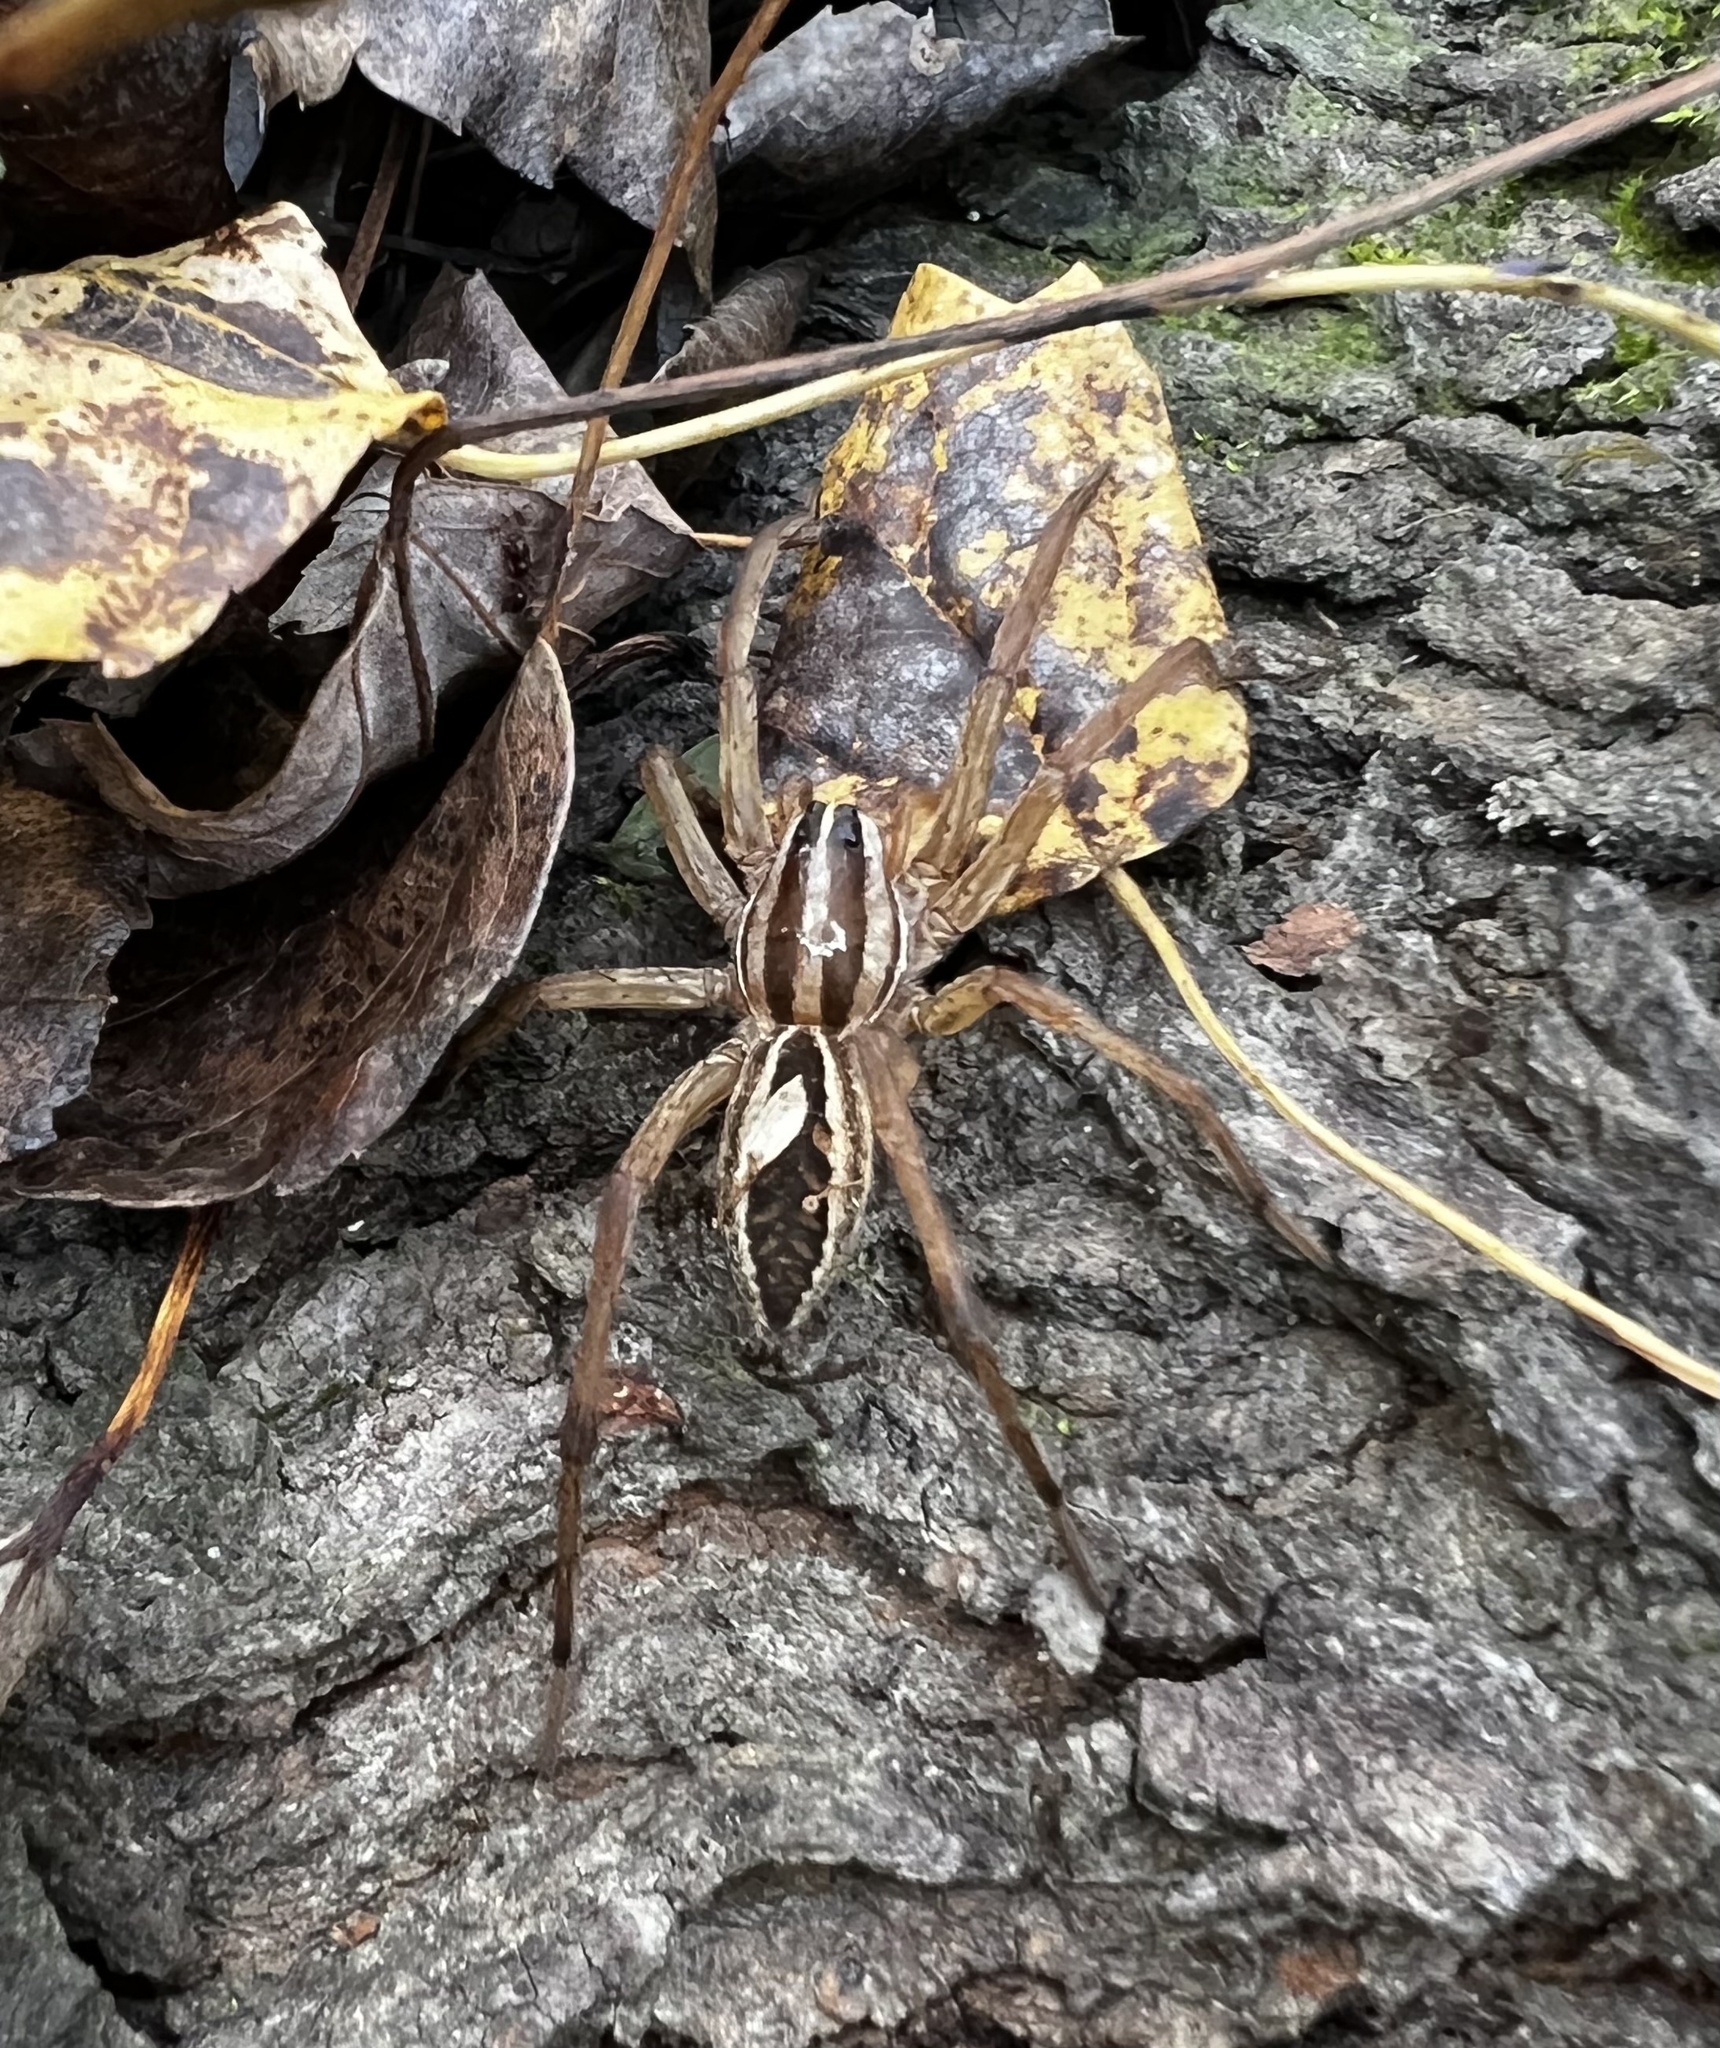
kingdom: Animalia
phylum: Arthropoda
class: Arachnida
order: Araneae
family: Lycosidae
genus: Rabidosa
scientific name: Rabidosa rabida
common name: Rabid wolf spider
